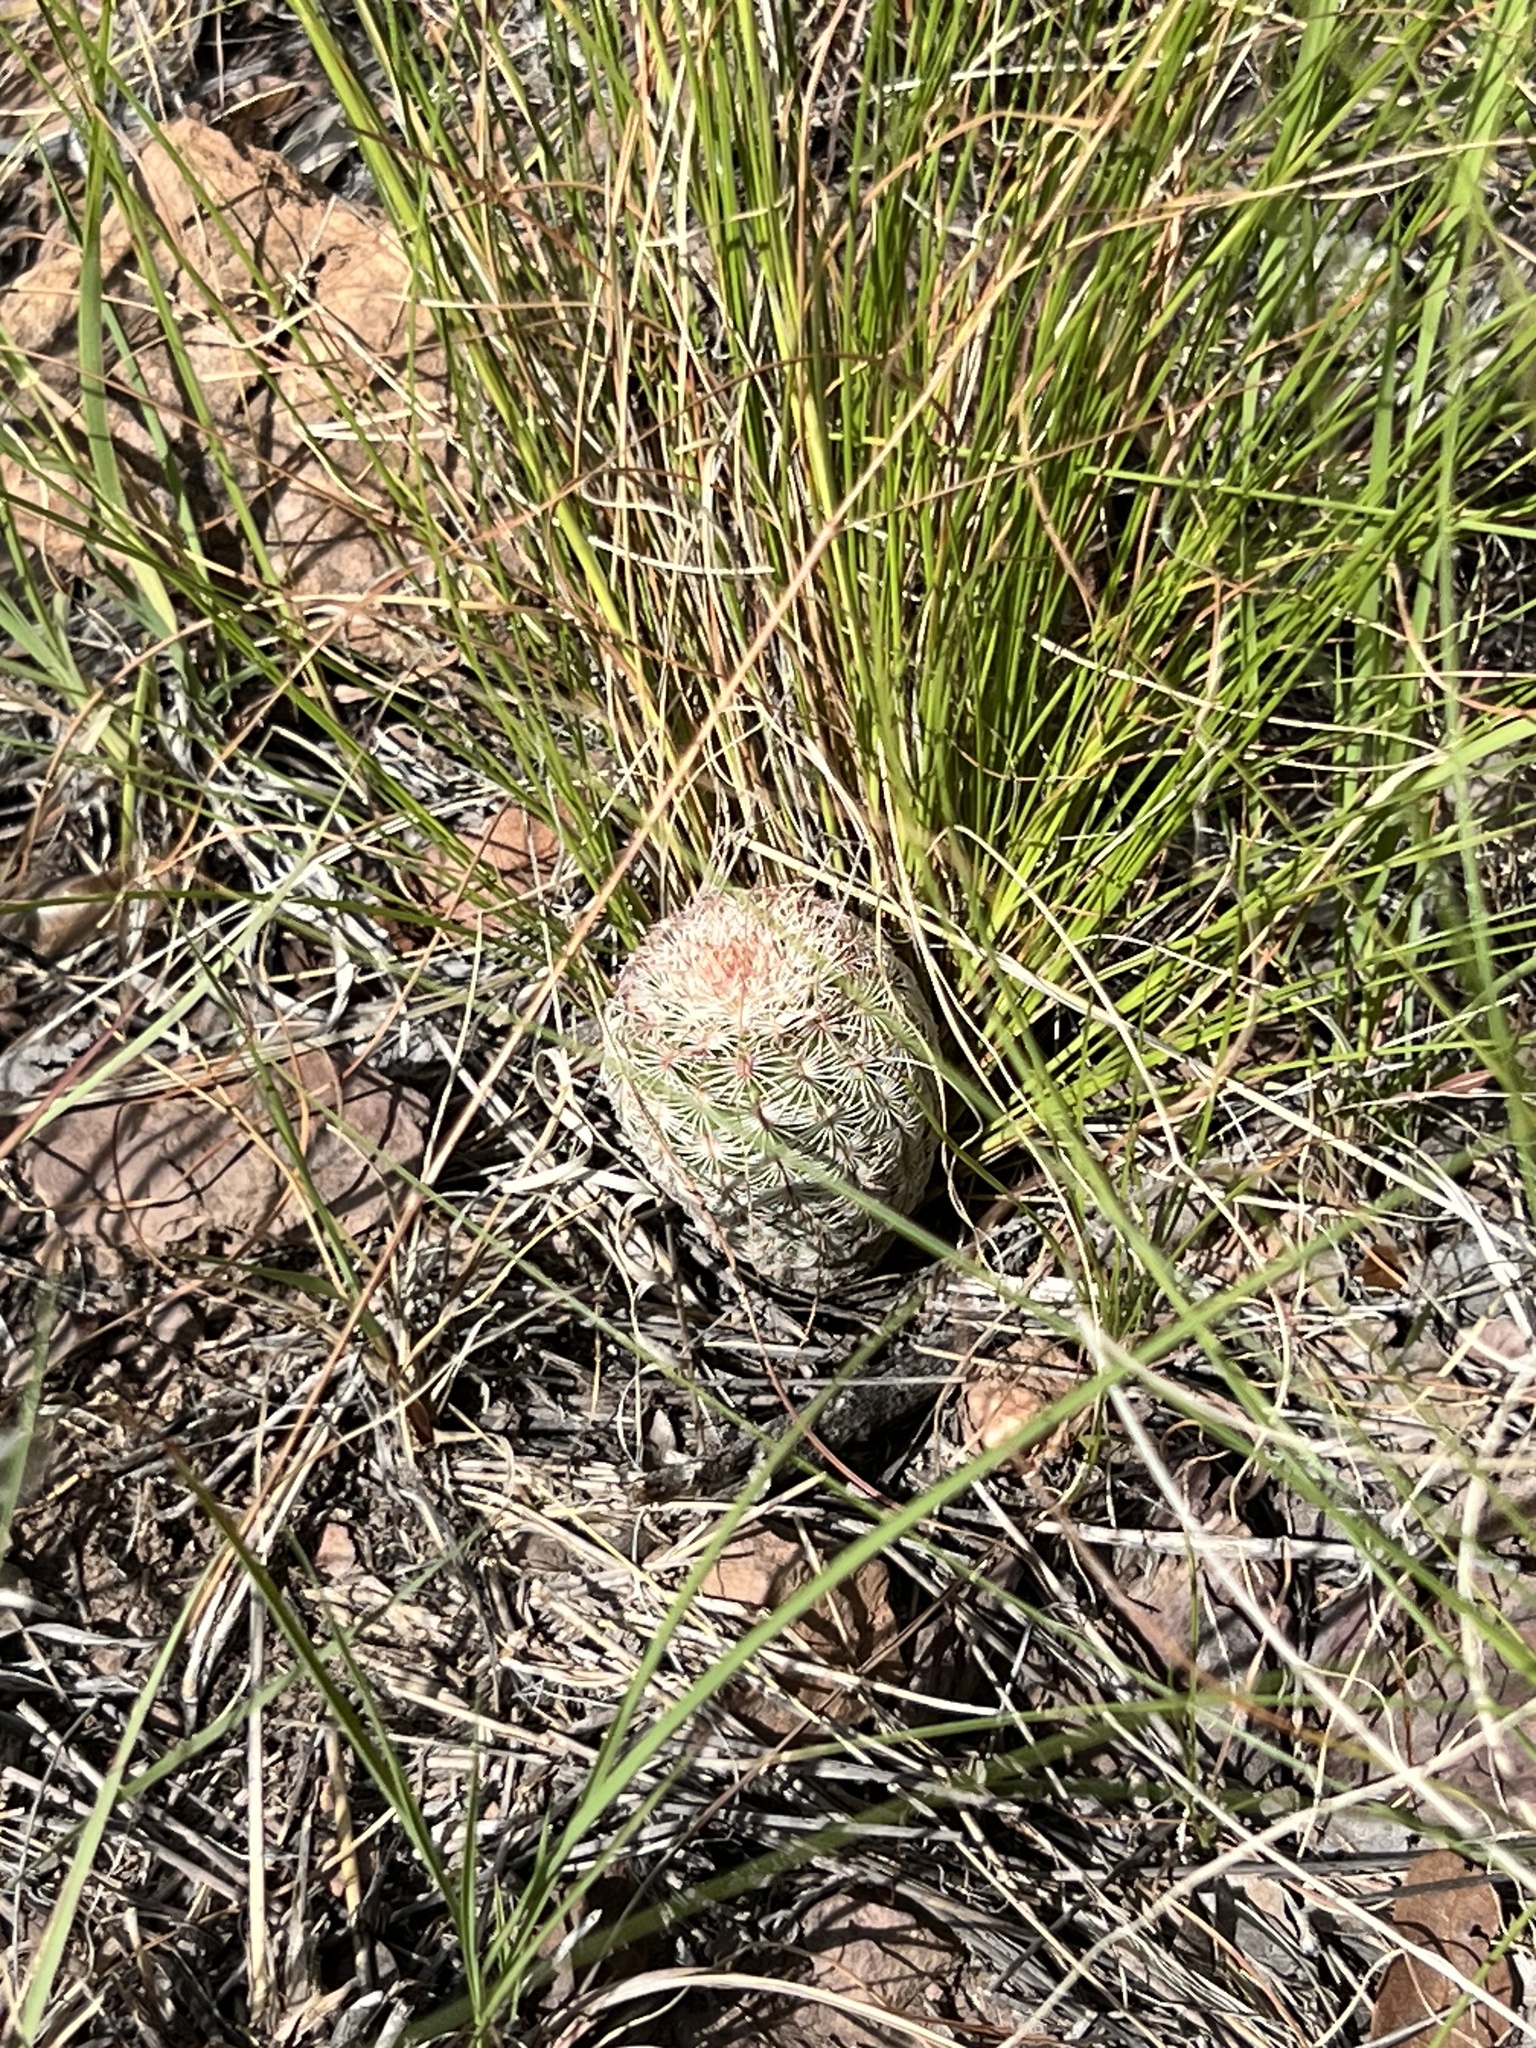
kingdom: Plantae
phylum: Tracheophyta
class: Magnoliopsida
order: Caryophyllales
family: Cactaceae
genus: Echinocereus
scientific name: Echinocereus rigidissimus
